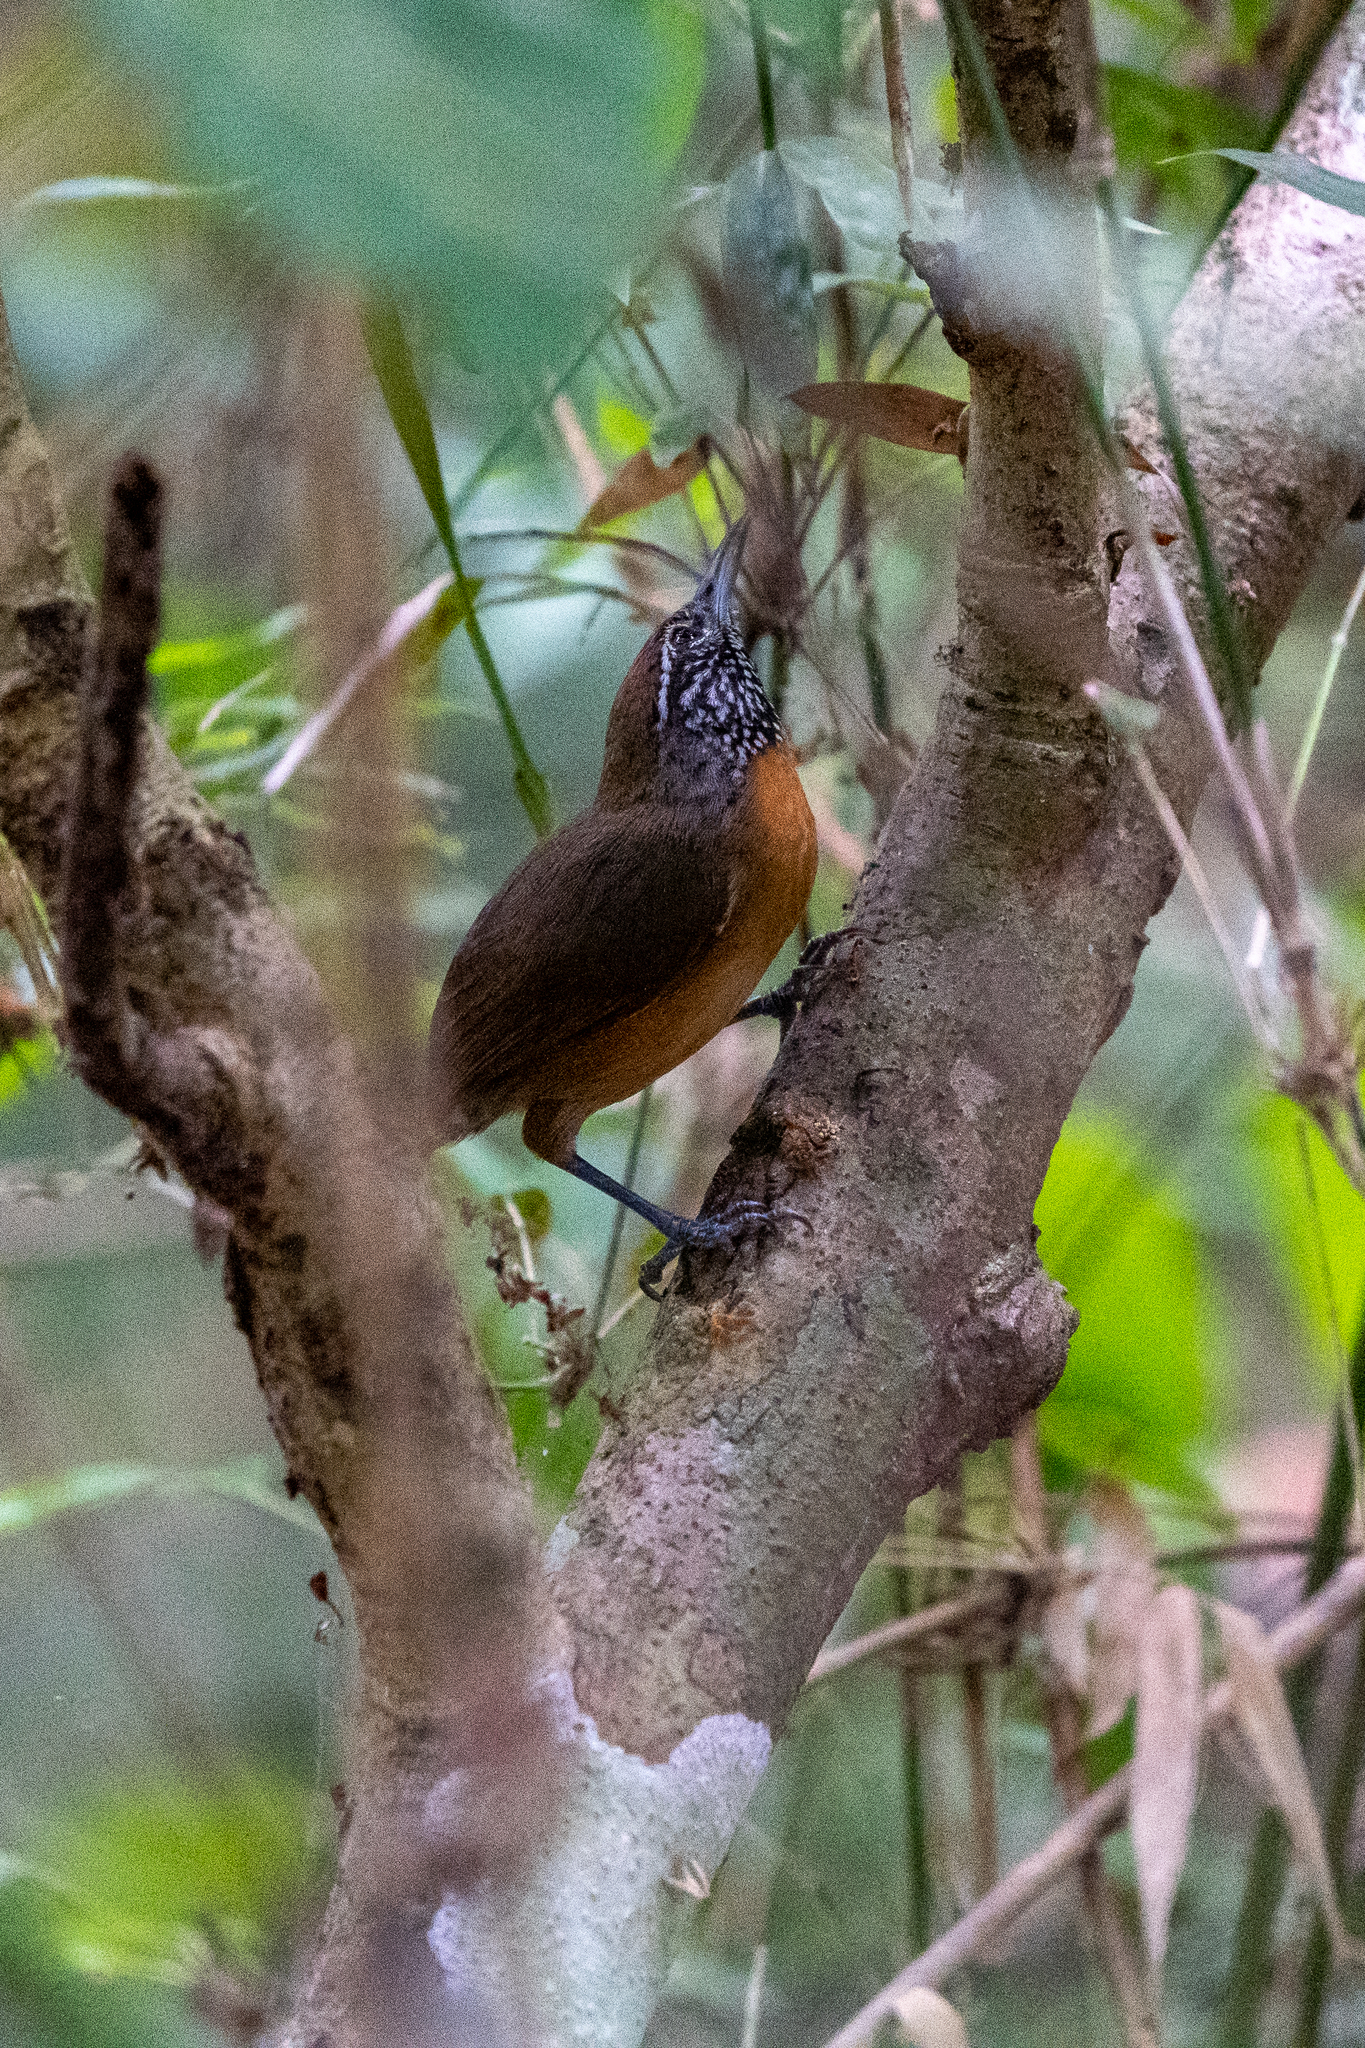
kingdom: Animalia
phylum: Chordata
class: Aves
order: Passeriformes
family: Troglodytidae
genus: Pheugopedius
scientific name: Pheugopedius rutilus
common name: Rufous-breasted wren
